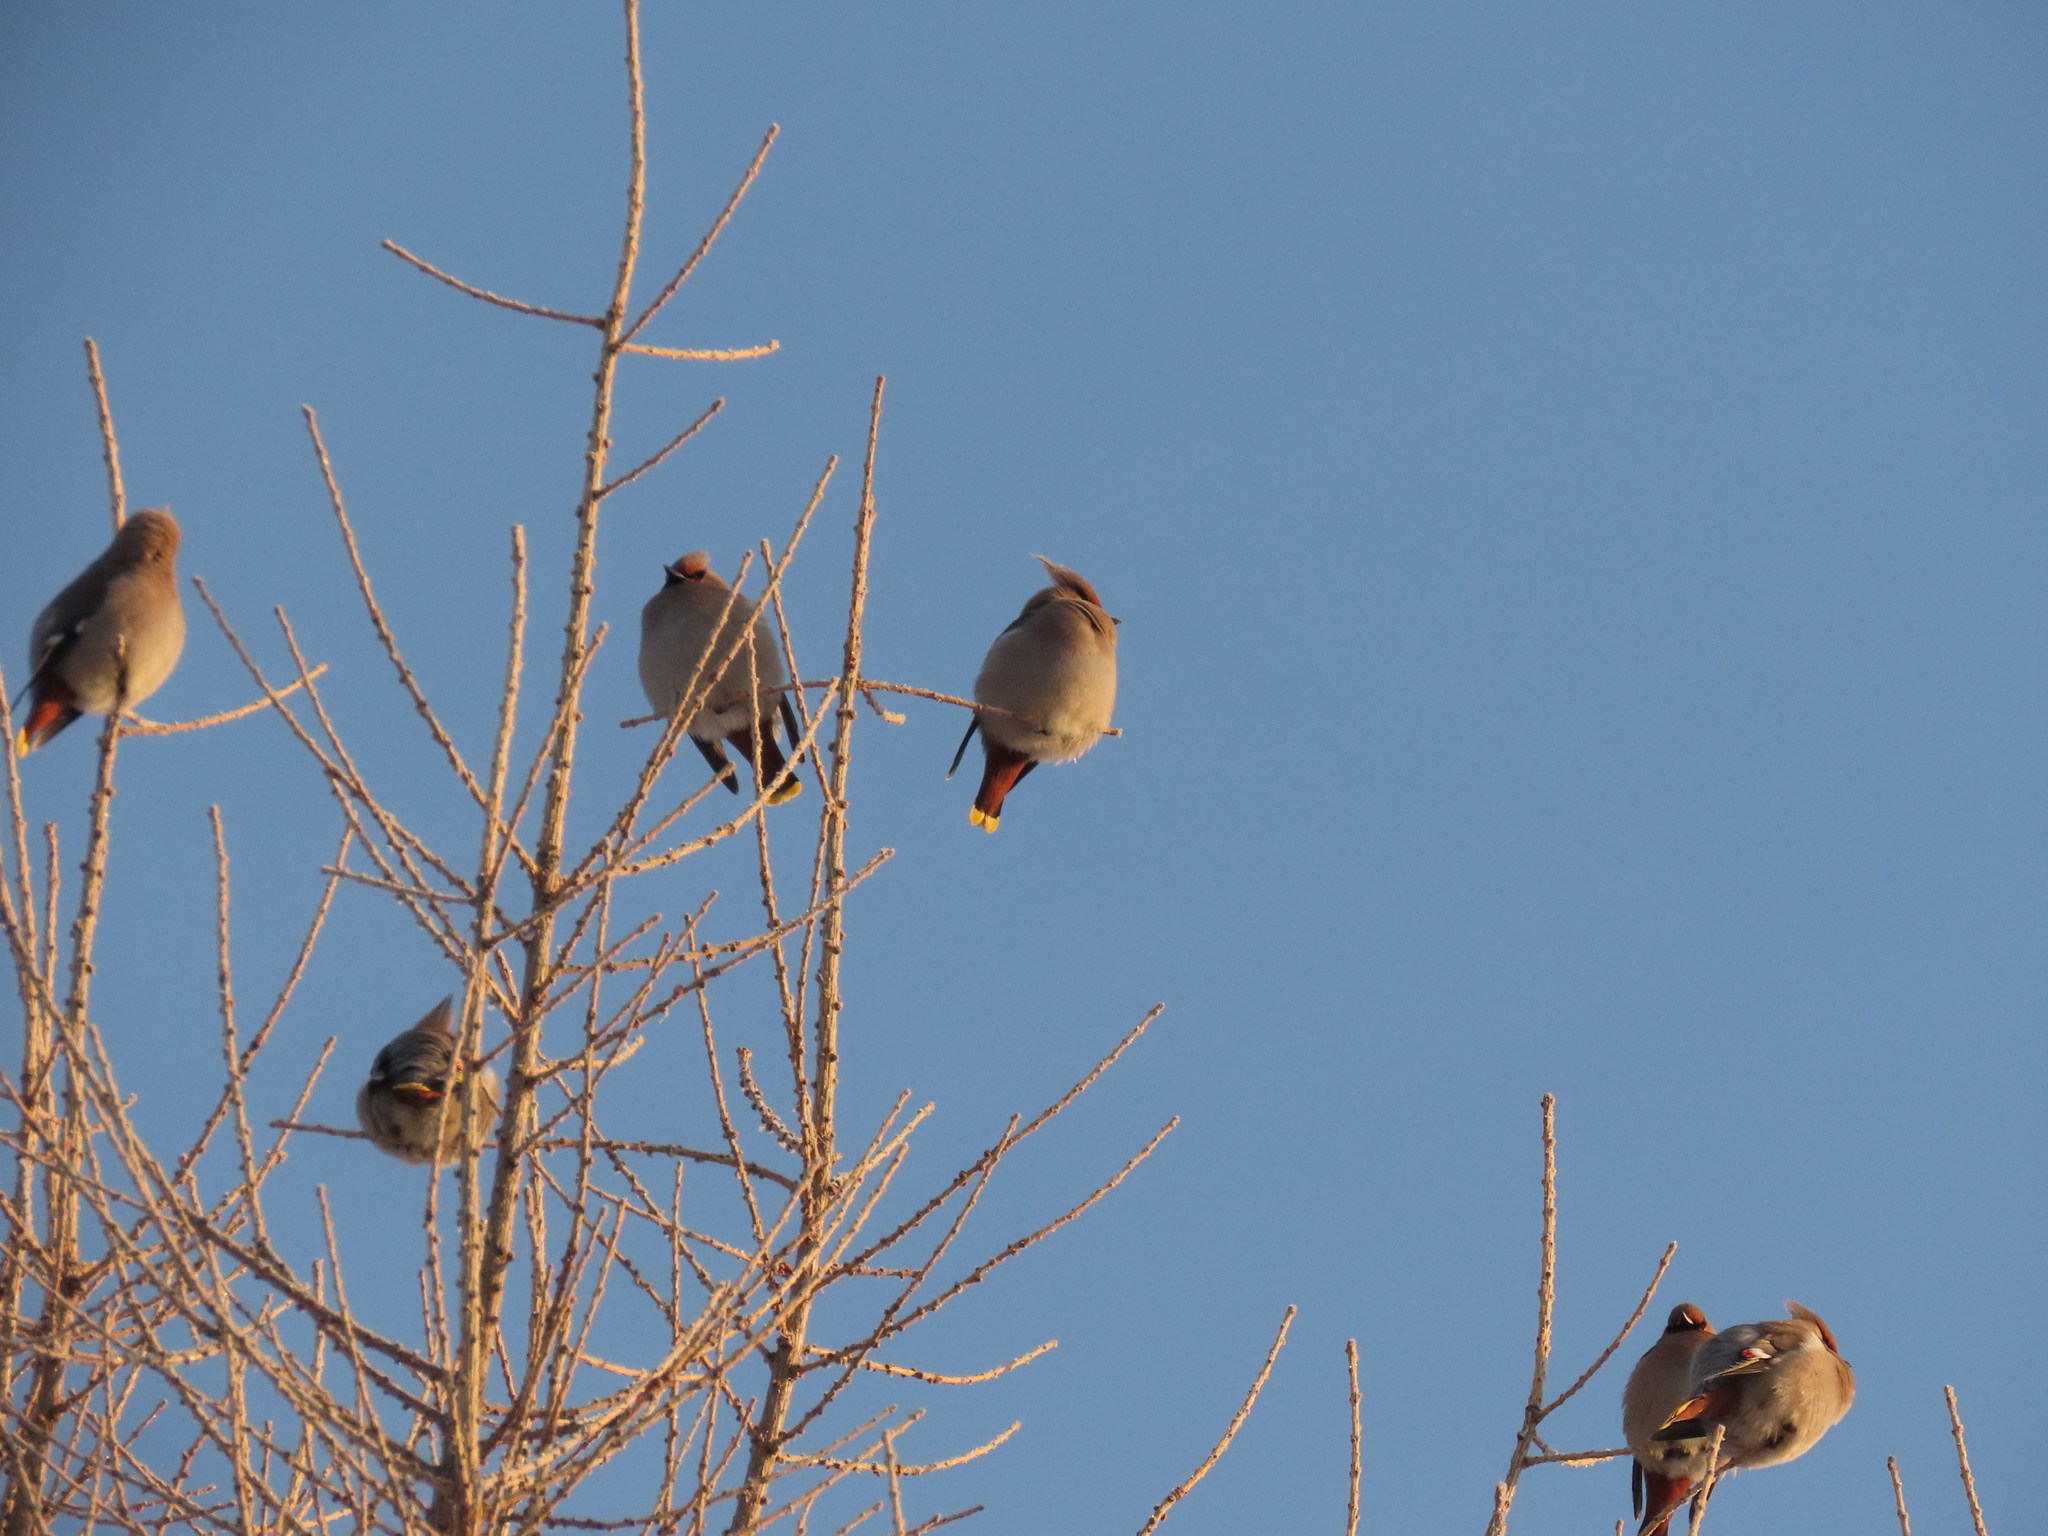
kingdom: Animalia
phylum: Chordata
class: Aves
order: Passeriformes
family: Bombycillidae
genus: Bombycilla
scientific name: Bombycilla garrulus
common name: Bohemian waxwing
